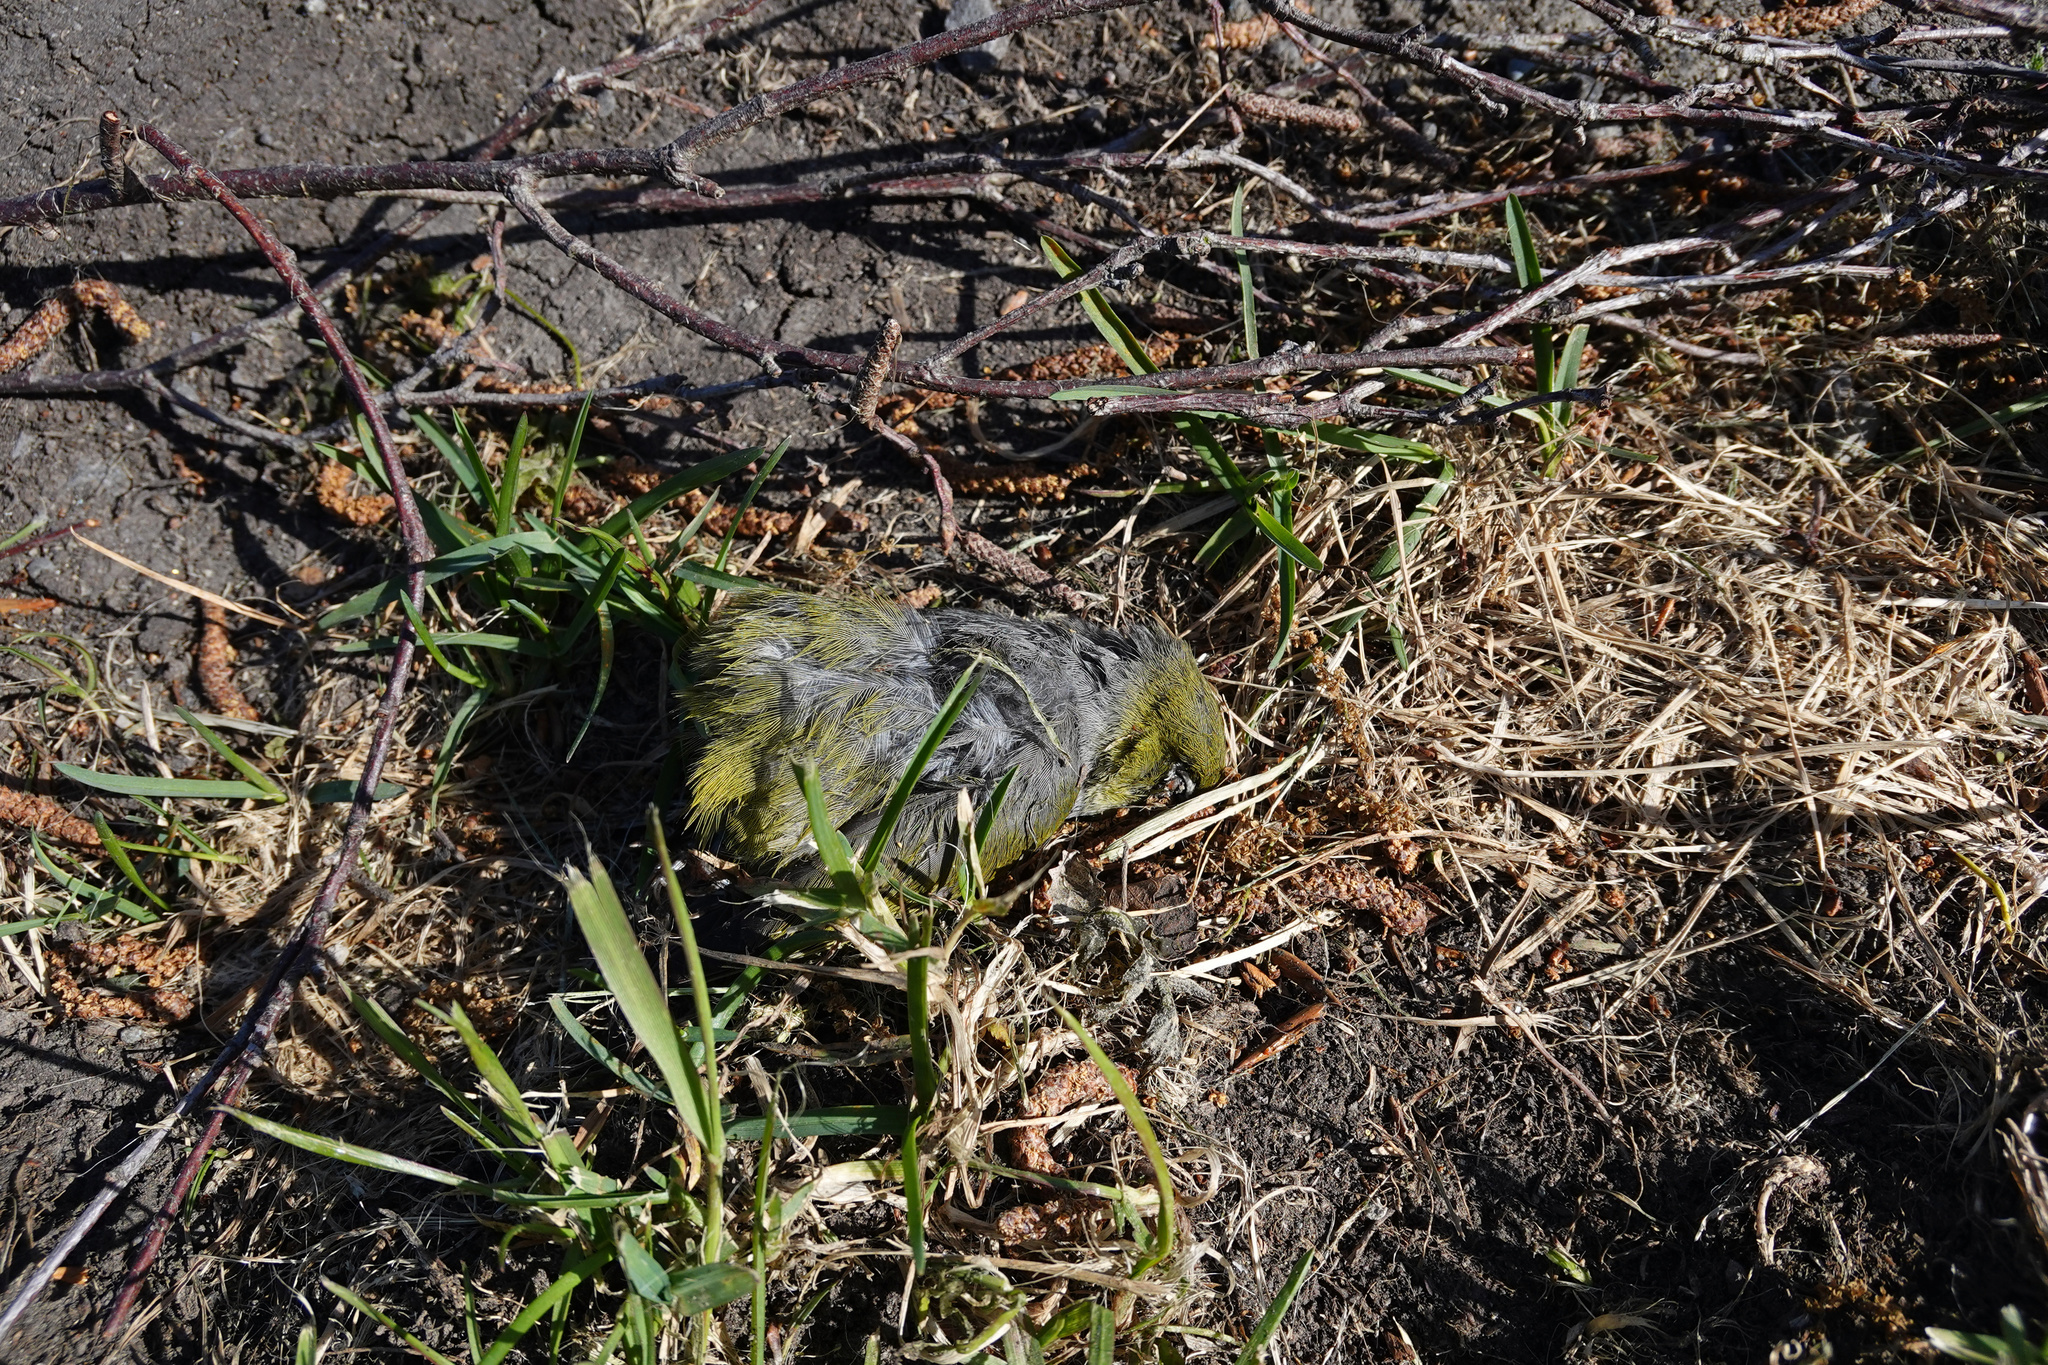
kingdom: Animalia
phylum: Chordata
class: Aves
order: Passeriformes
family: Zosteropidae
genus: Zosterops
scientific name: Zosterops lateralis
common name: Silvereye
